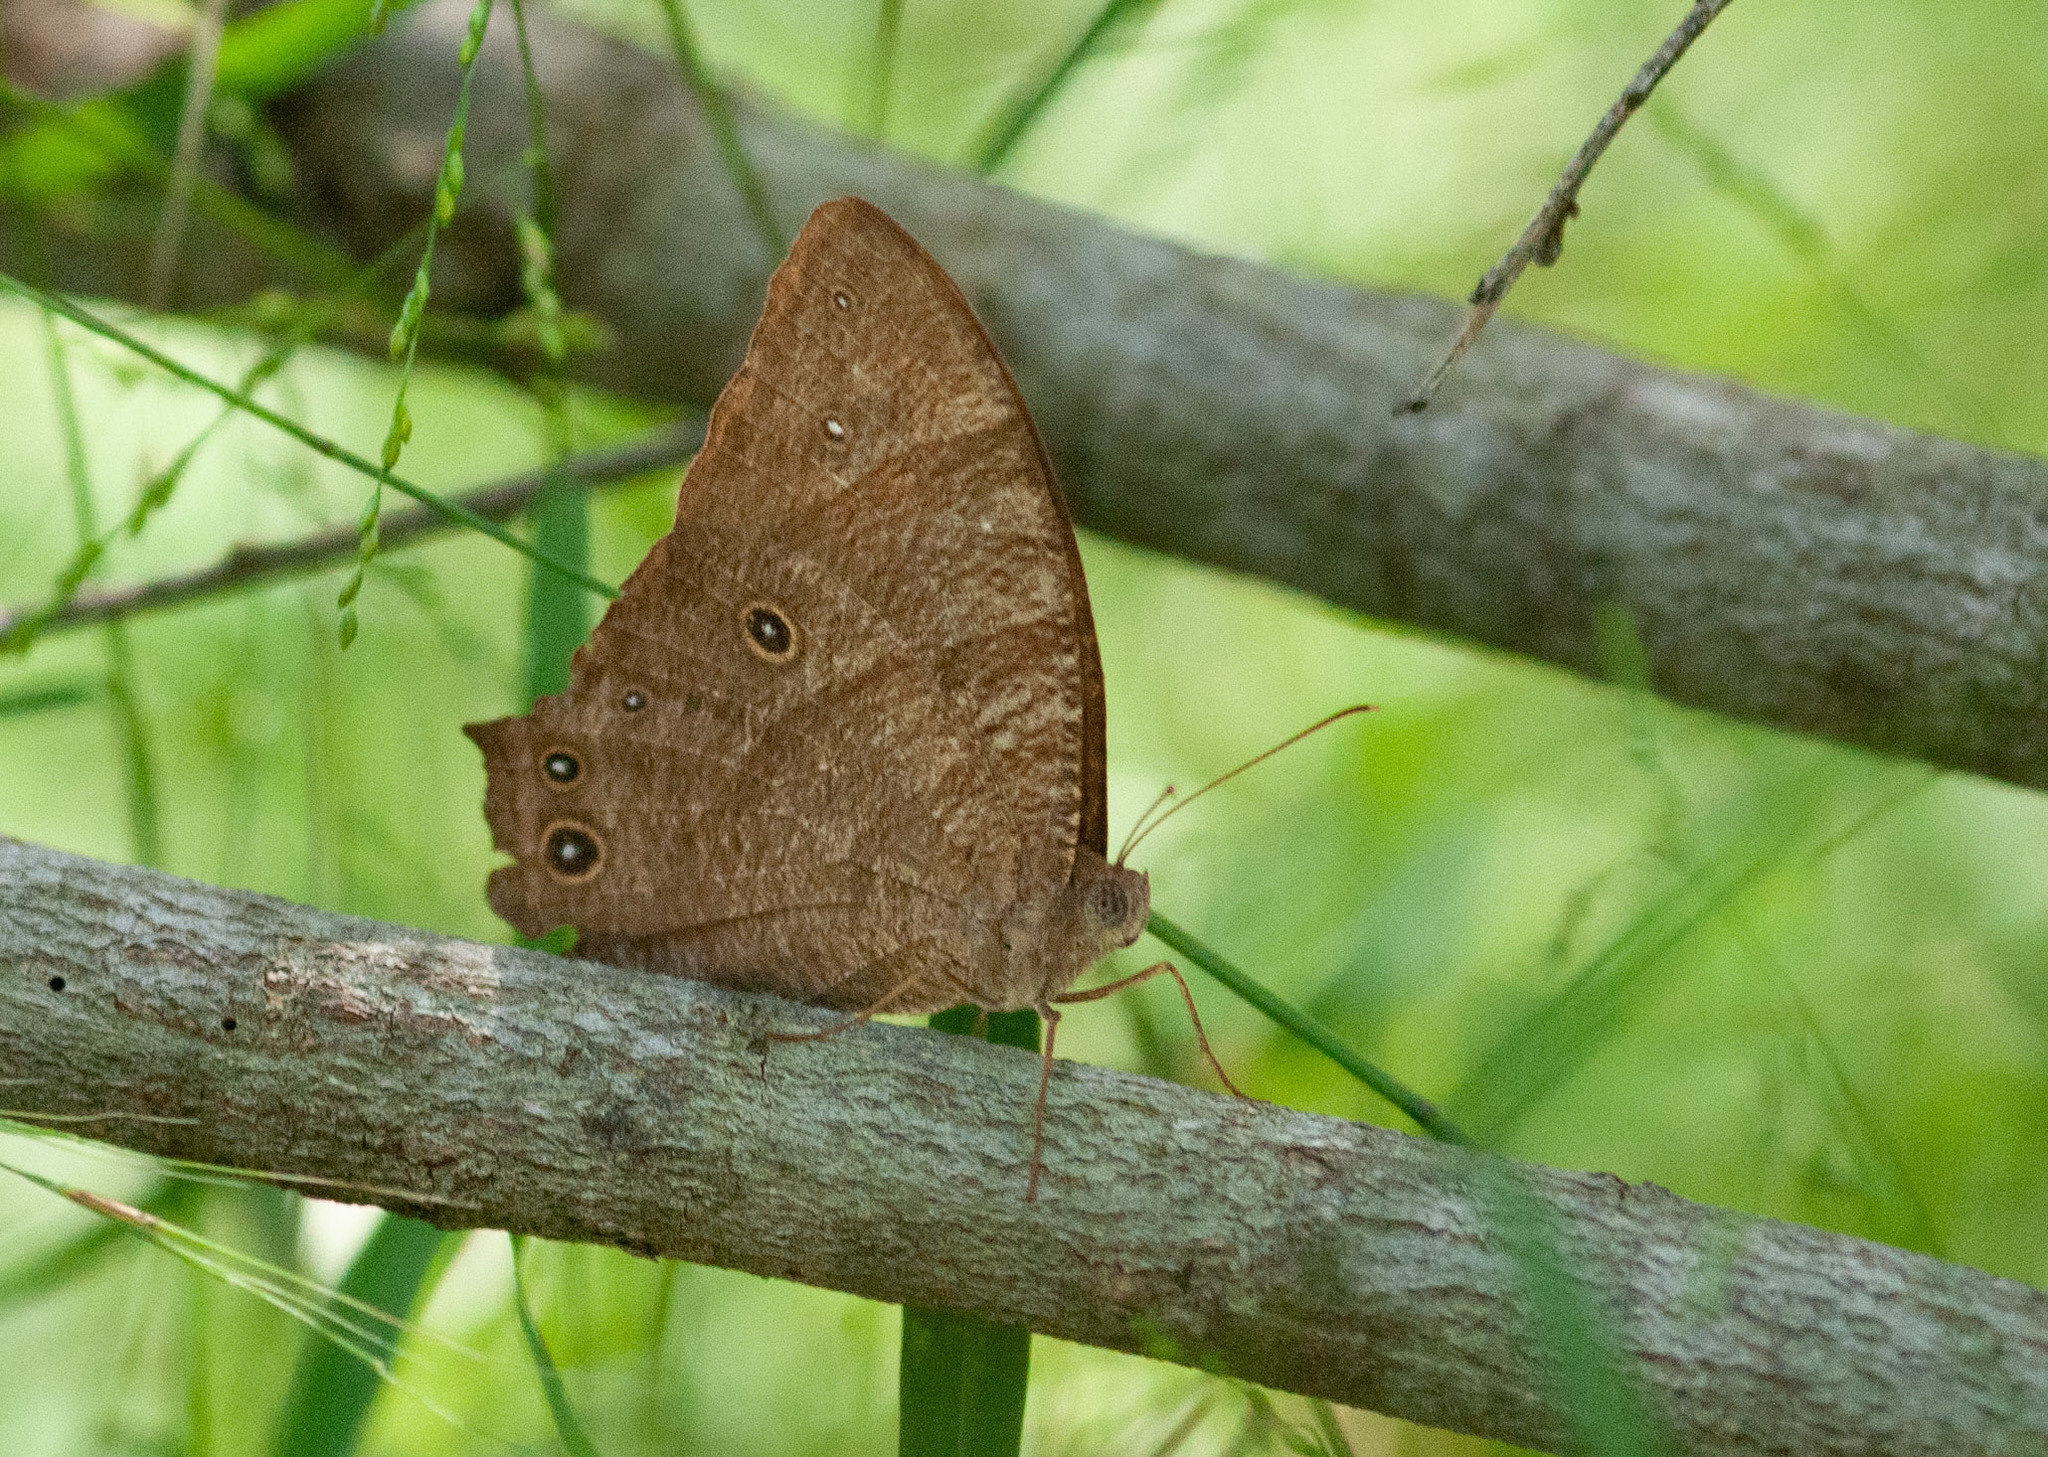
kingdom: Animalia
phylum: Arthropoda
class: Insecta
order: Lepidoptera
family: Nymphalidae
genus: Melanitis
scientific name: Melanitis leda
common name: Twilight brown
